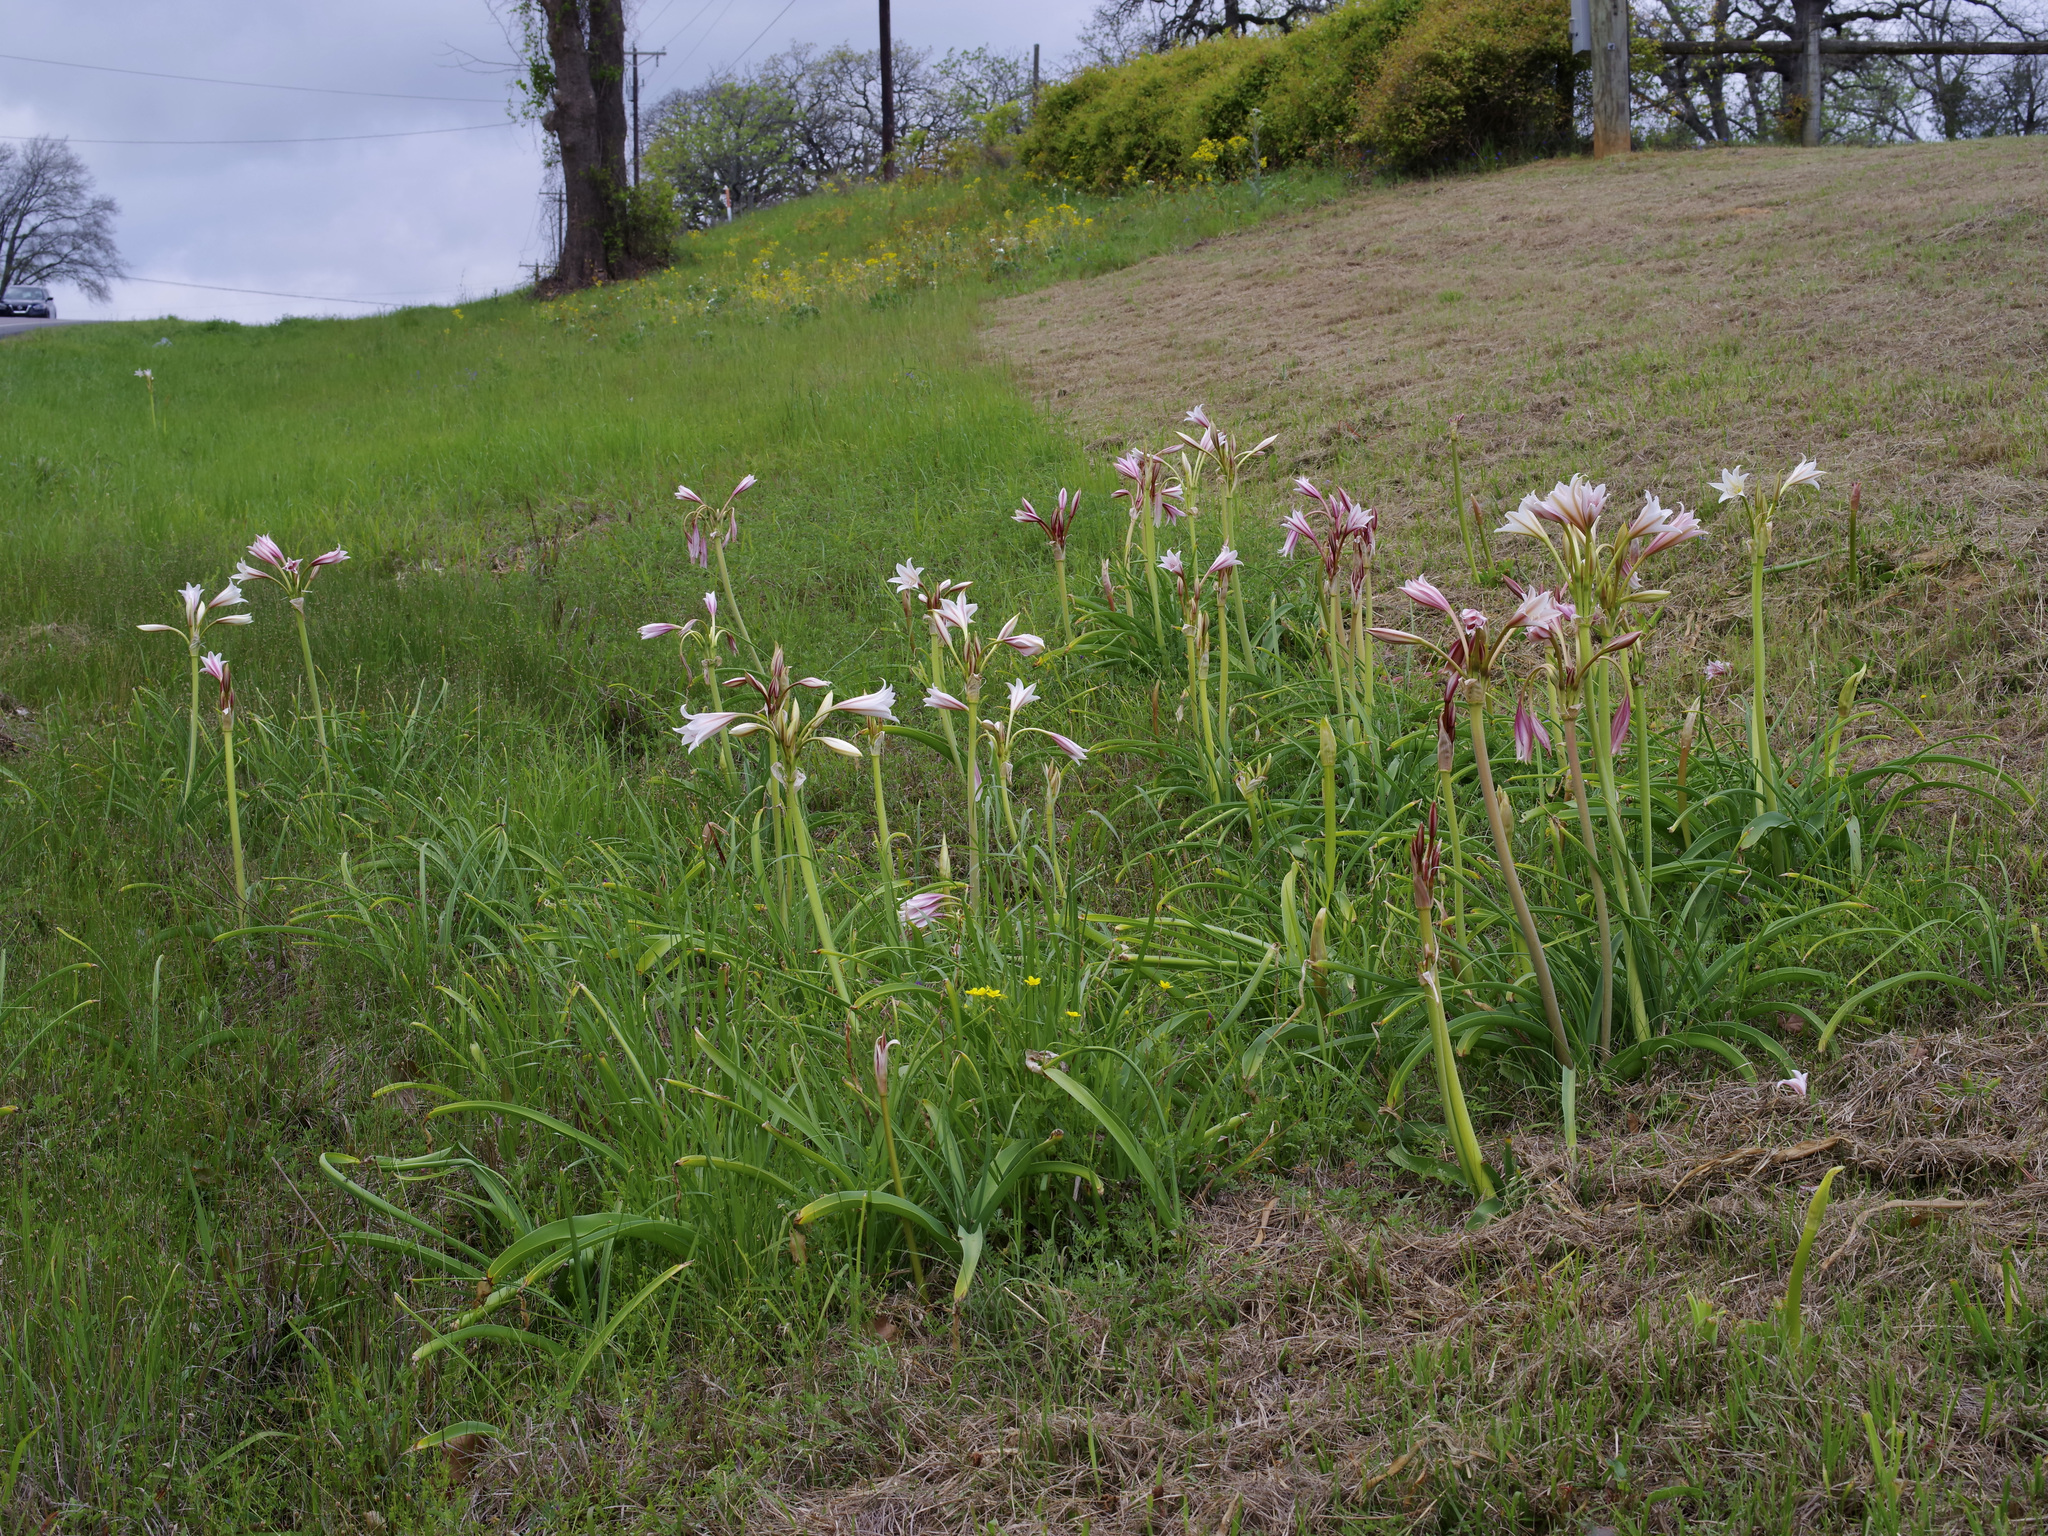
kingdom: Plantae
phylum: Tracheophyta
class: Liliopsida
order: Asparagales
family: Amaryllidaceae
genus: Crinum
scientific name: Crinum bulbispermum
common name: Hardy swamplily
